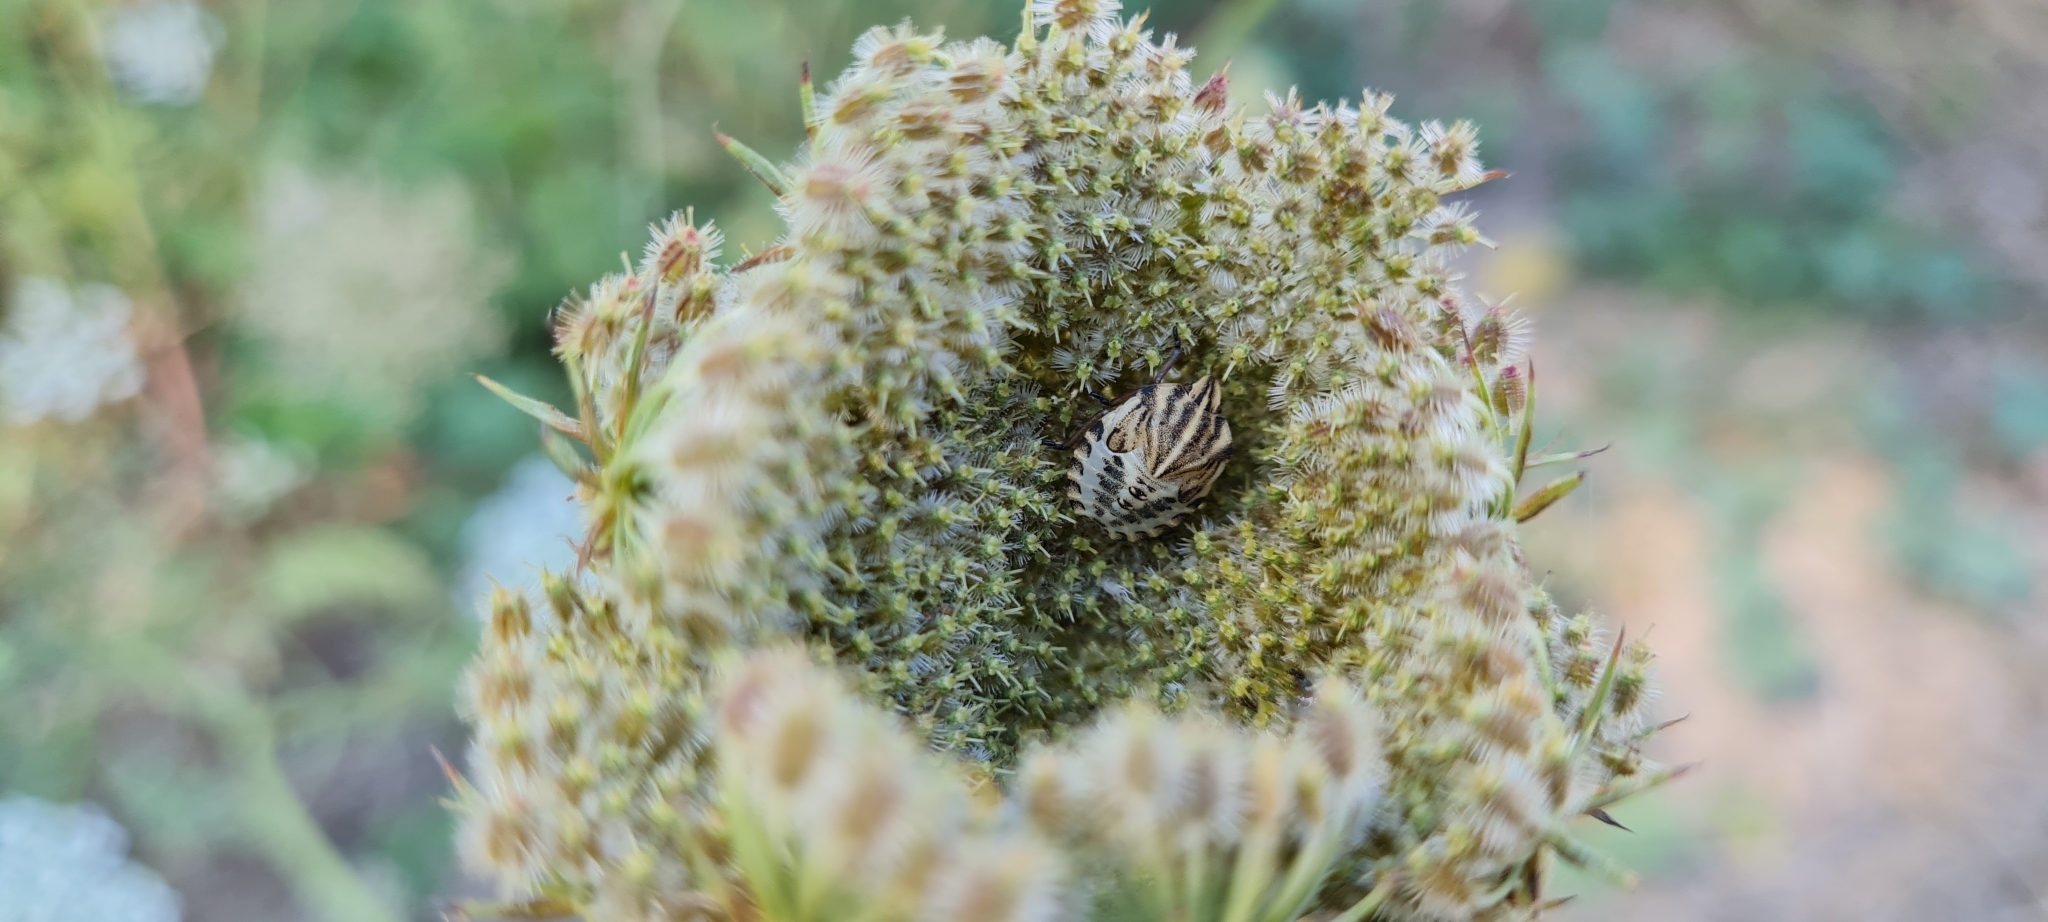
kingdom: Animalia
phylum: Arthropoda
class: Insecta
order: Hemiptera
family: Pentatomidae
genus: Graphosoma
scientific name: Graphosoma italicum
